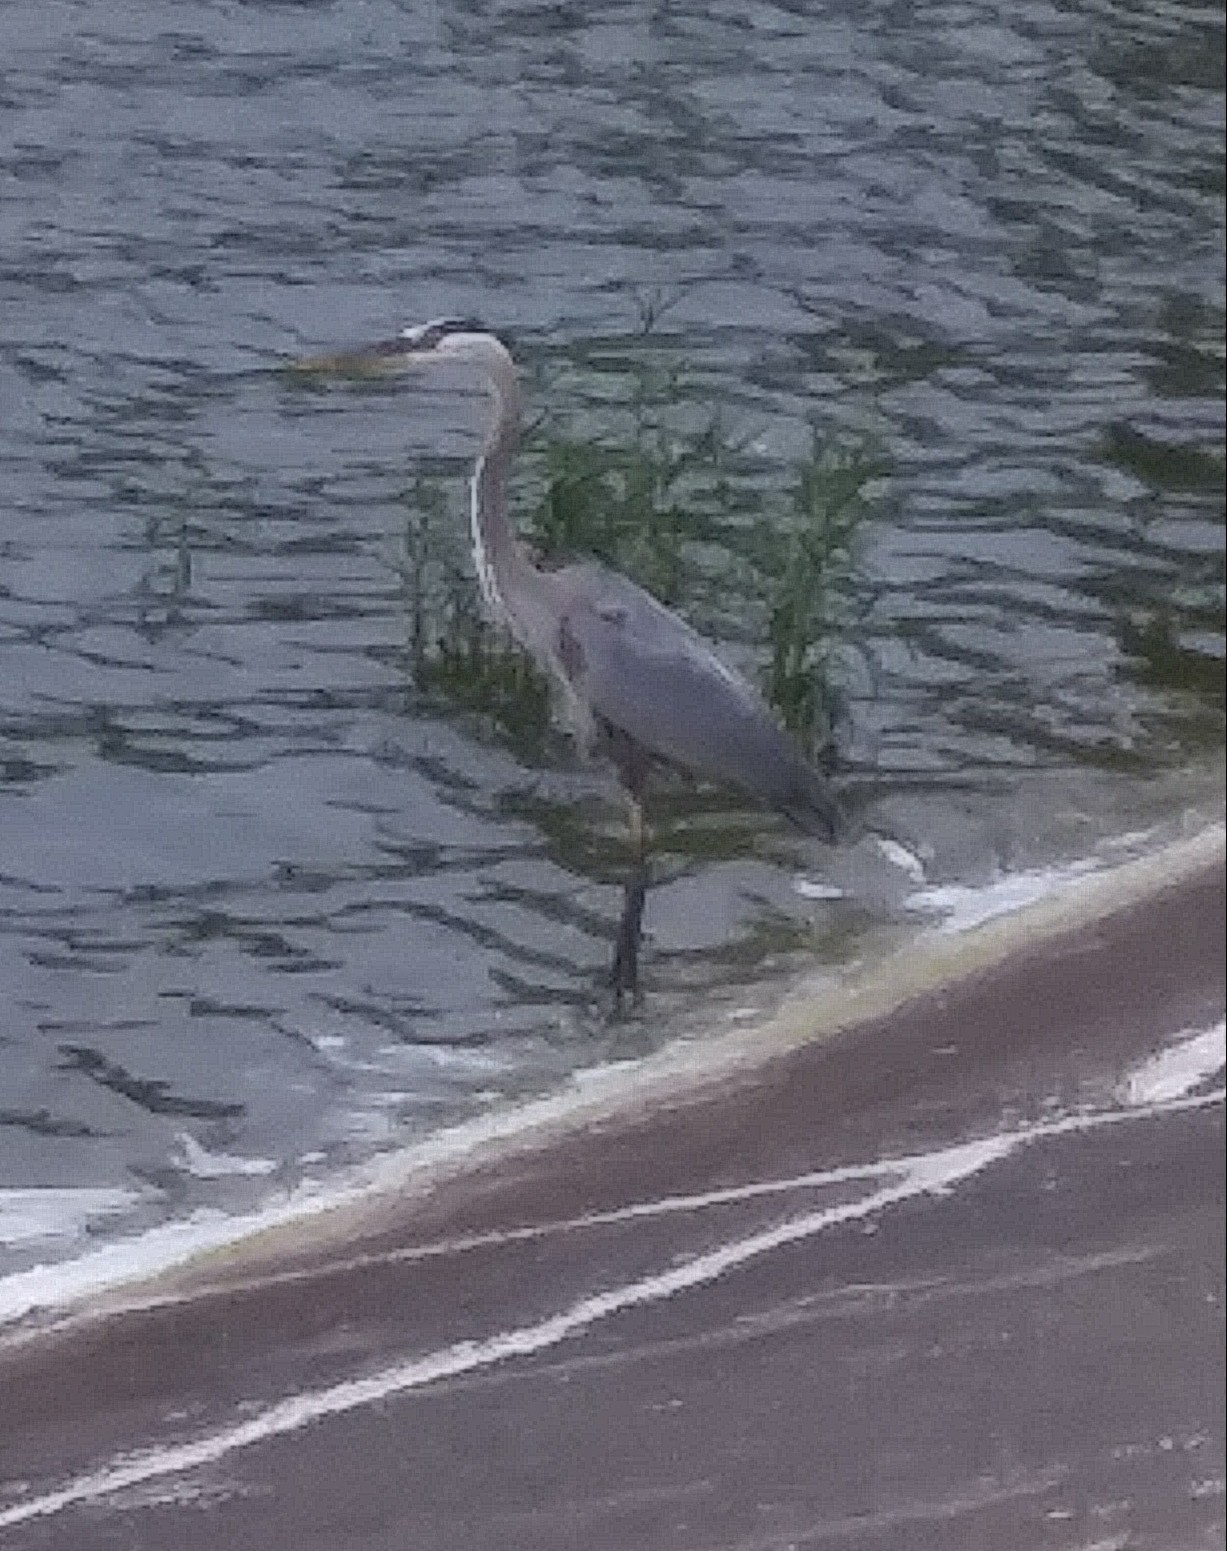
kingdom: Animalia
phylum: Chordata
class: Aves
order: Pelecaniformes
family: Ardeidae
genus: Ardea
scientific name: Ardea herodias
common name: Great blue heron
